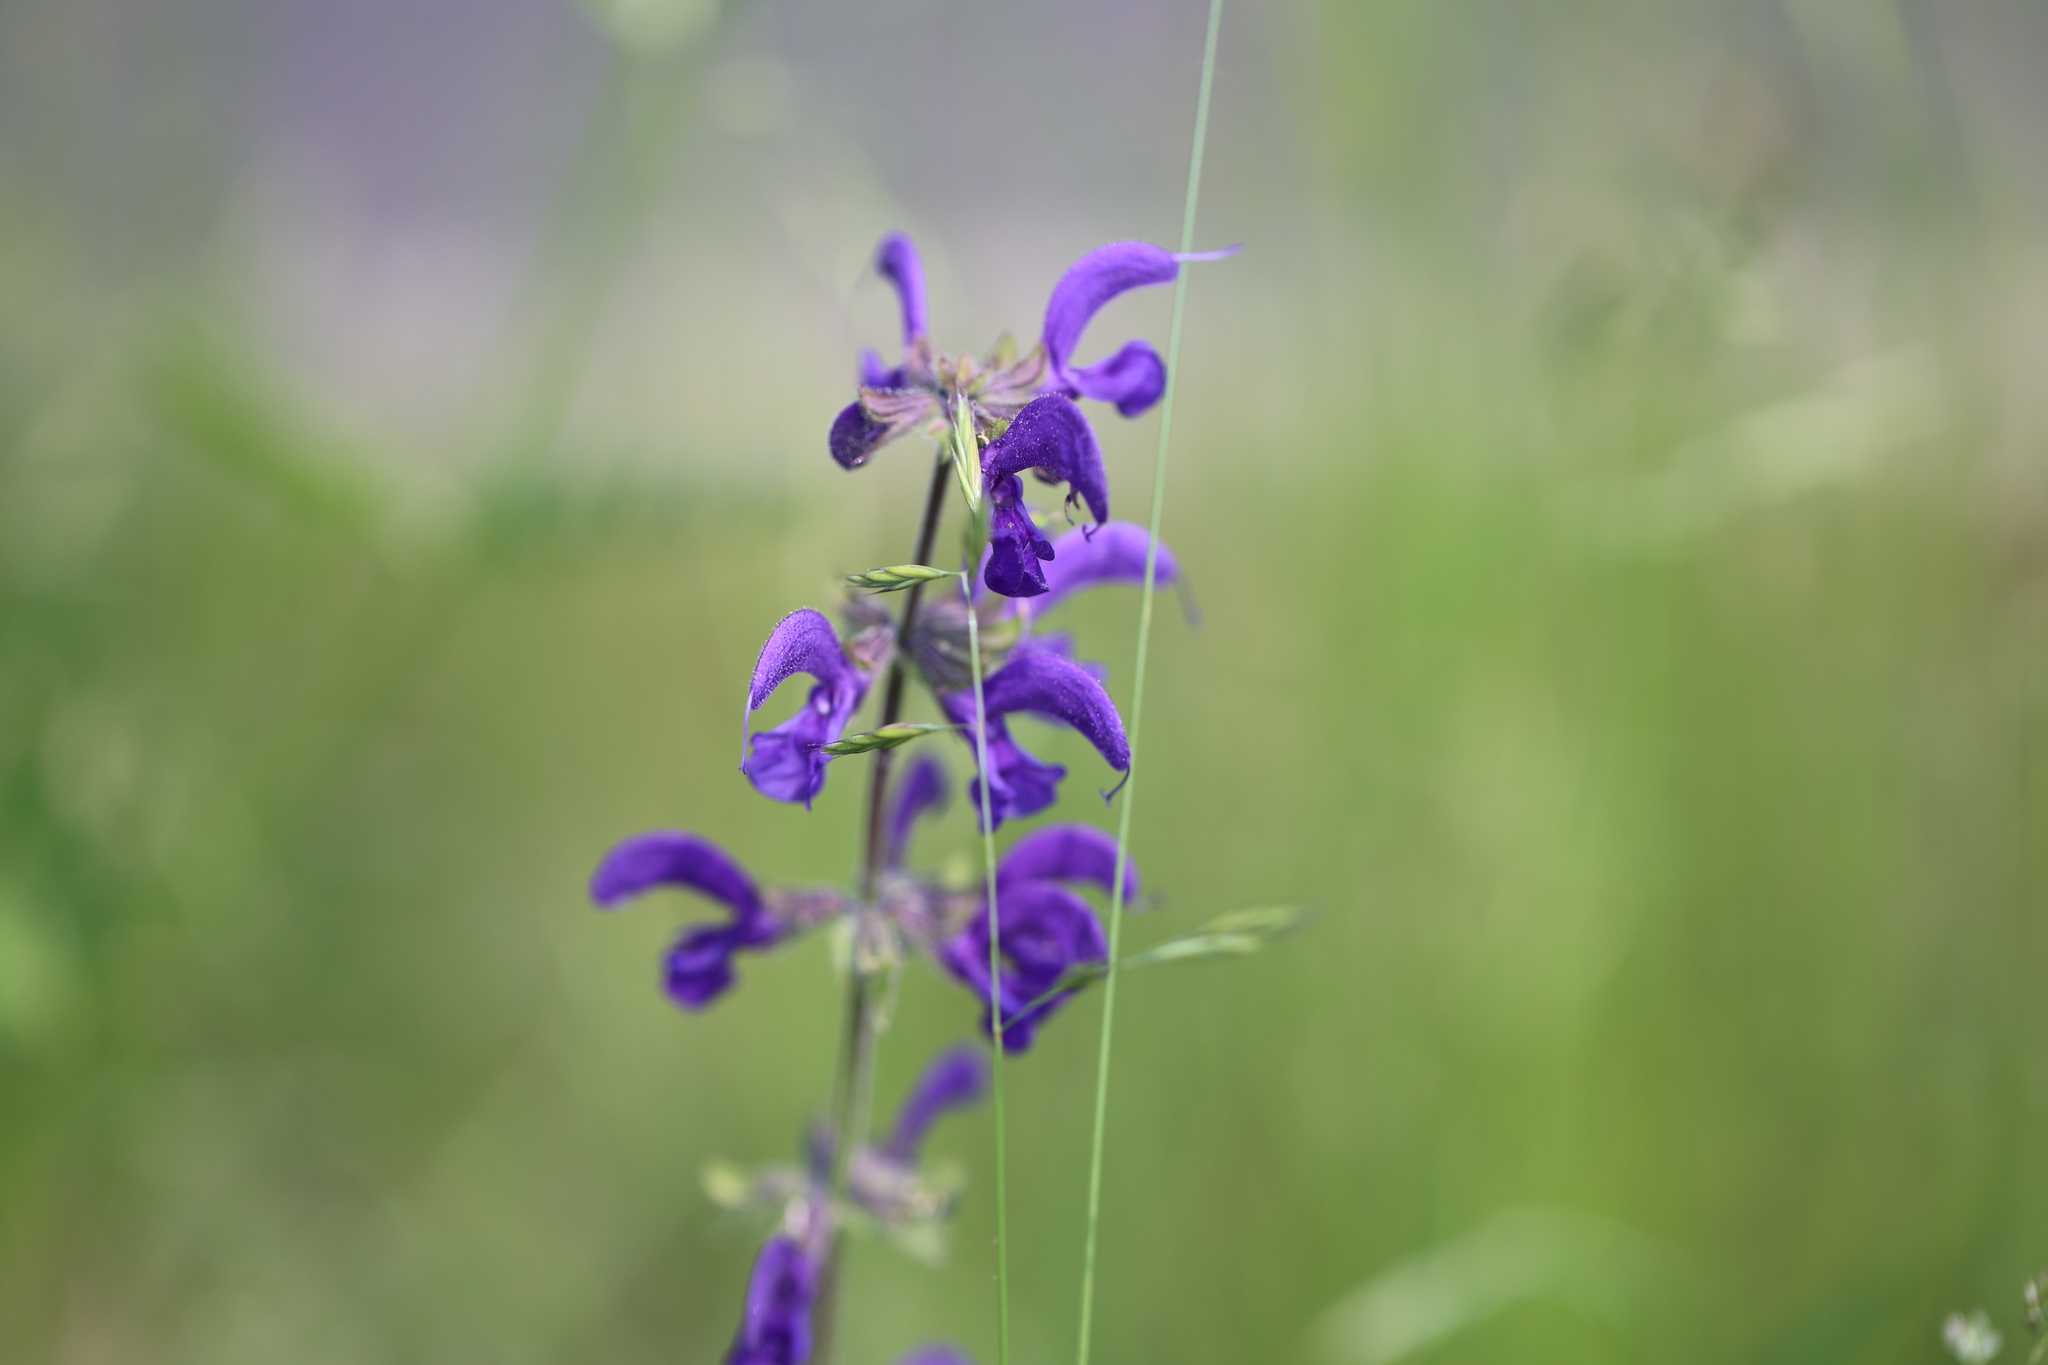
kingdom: Plantae
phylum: Tracheophyta
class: Magnoliopsida
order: Lamiales
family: Lamiaceae
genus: Salvia
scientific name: Salvia pratensis
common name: Meadow sage
